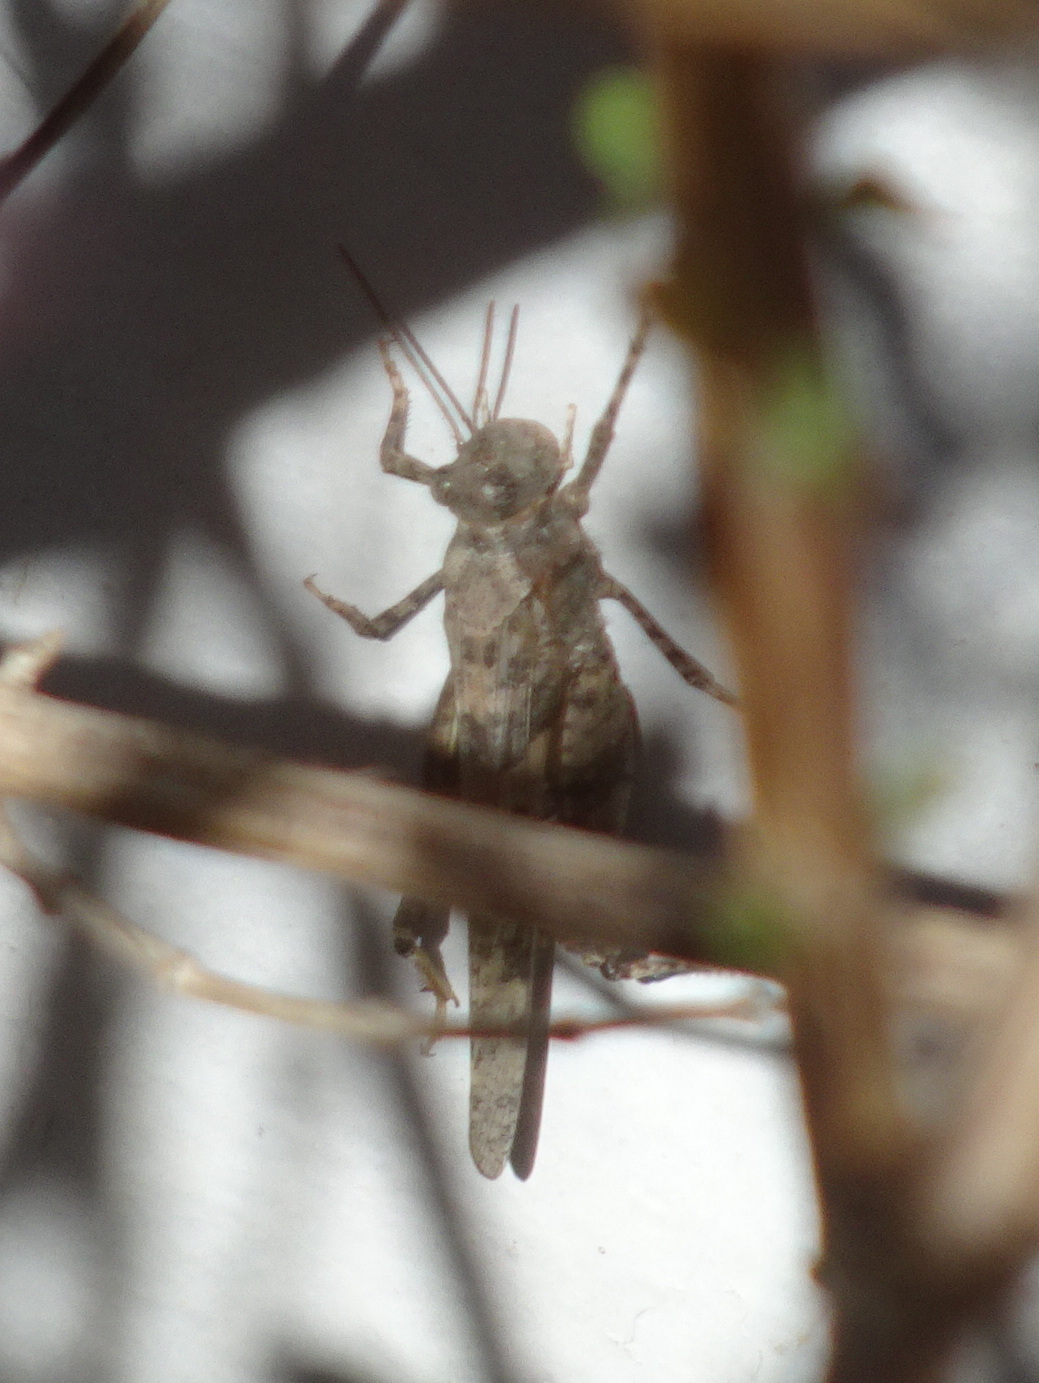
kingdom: Animalia
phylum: Arthropoda
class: Insecta
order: Orthoptera
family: Acrididae
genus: Trimerotropis
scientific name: Trimerotropis pallidipennis
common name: Pallid-winged grasshopper
